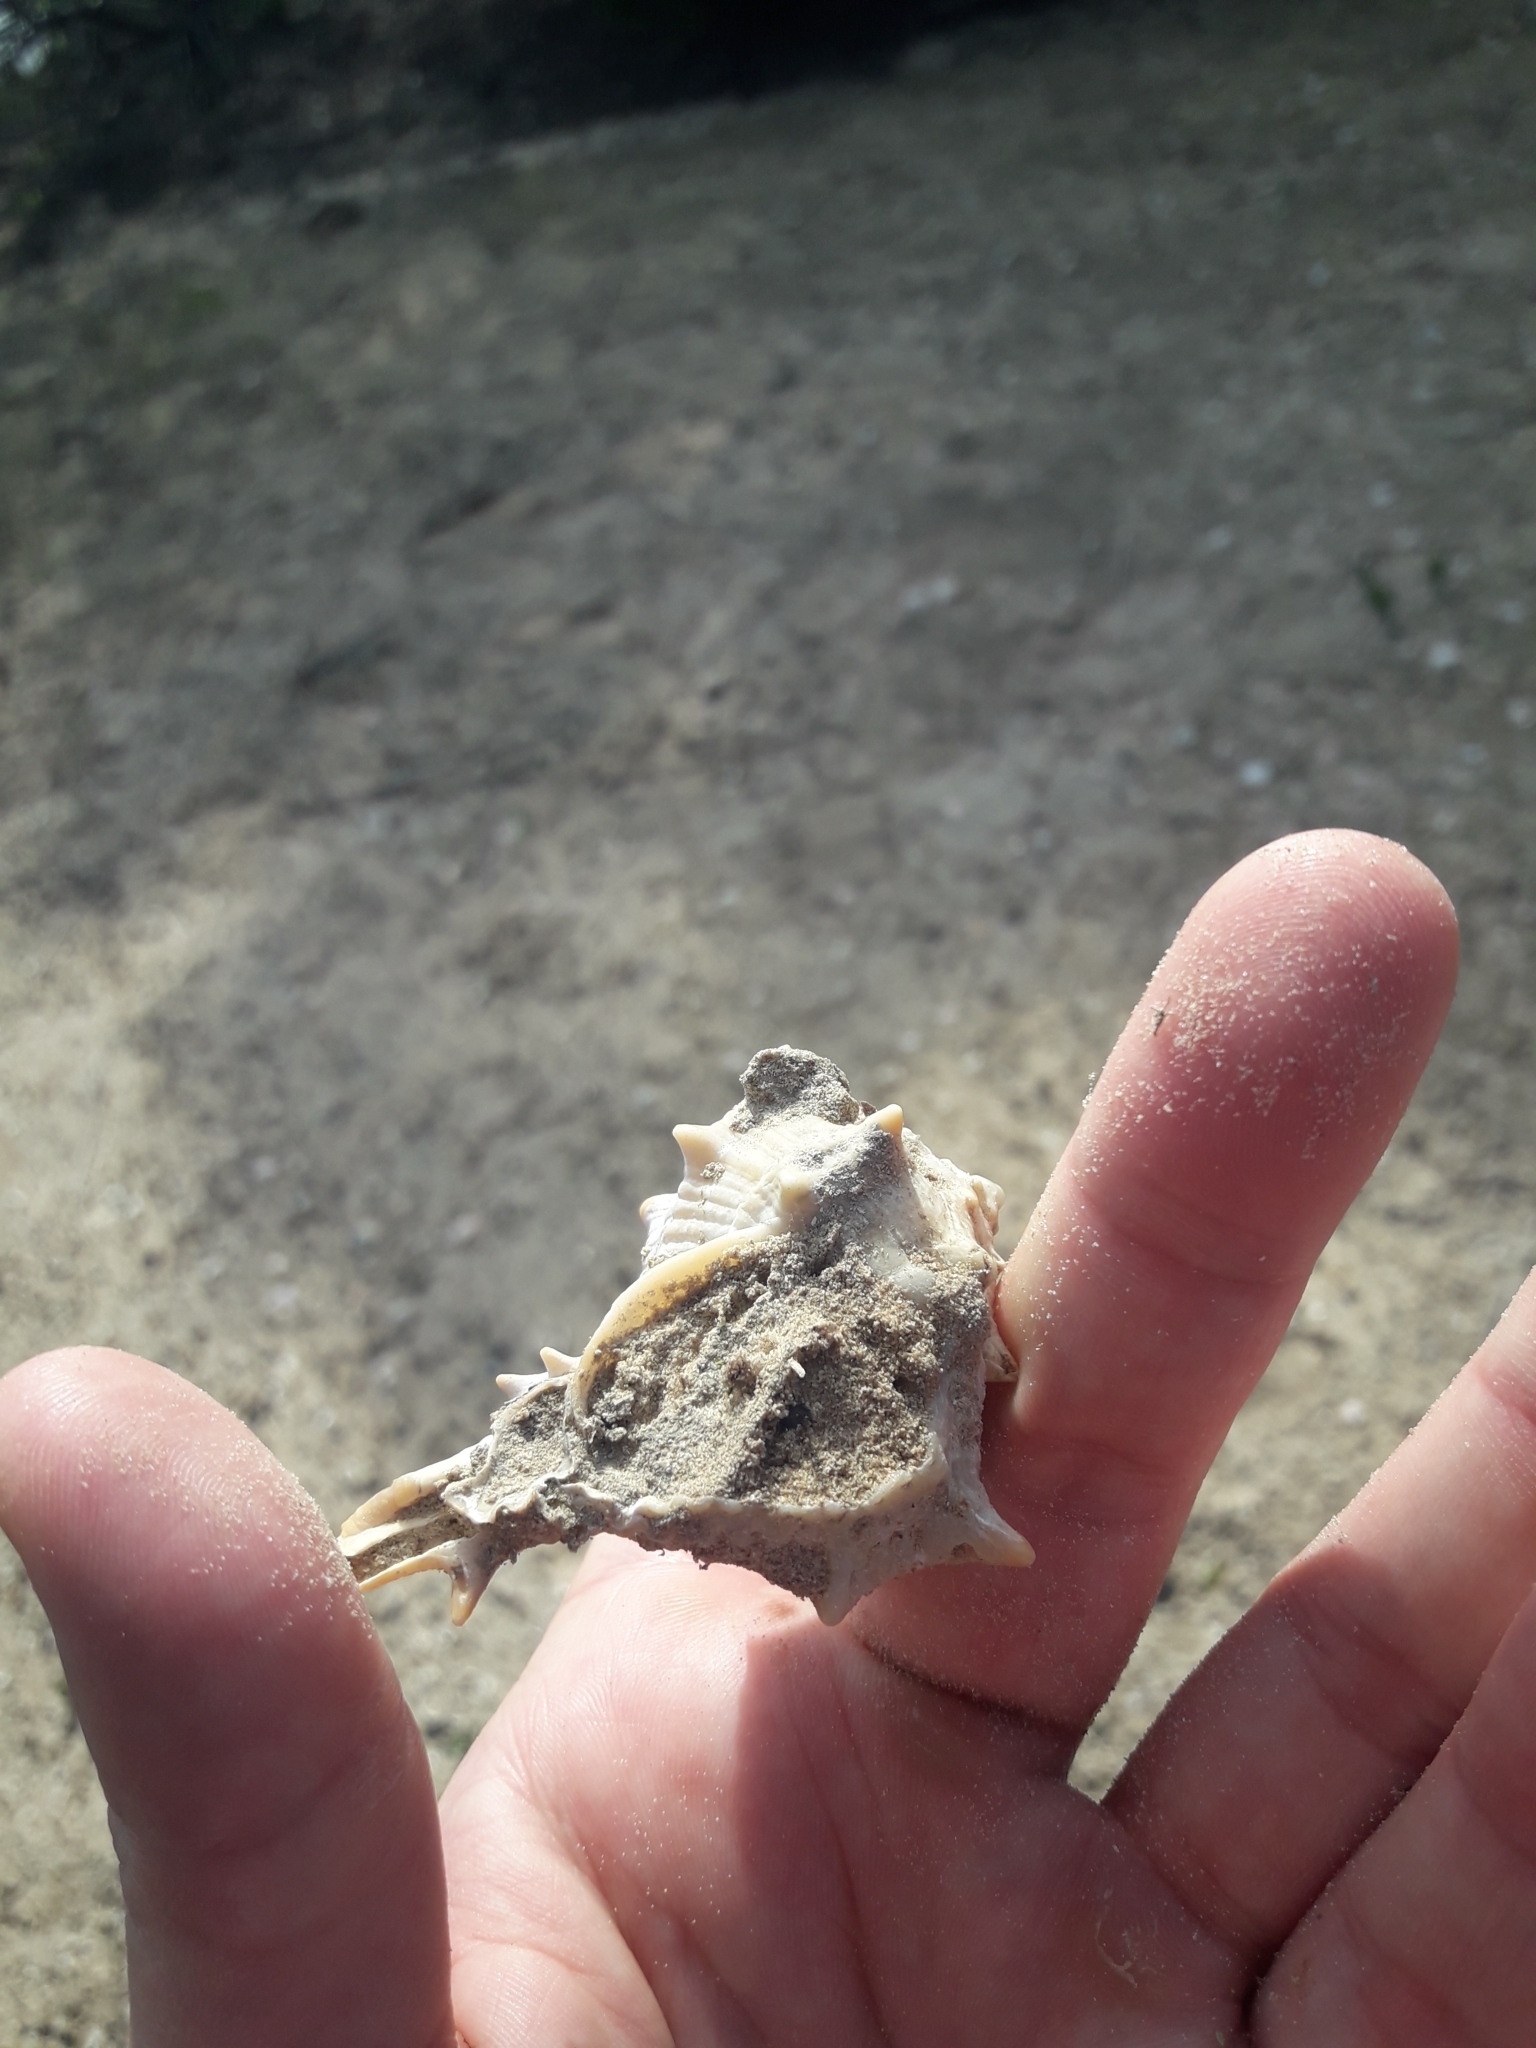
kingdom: Animalia
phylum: Mollusca
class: Gastropoda
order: Neogastropoda
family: Muricidae
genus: Bolinus
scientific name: Bolinus brandaris
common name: Dye murex
